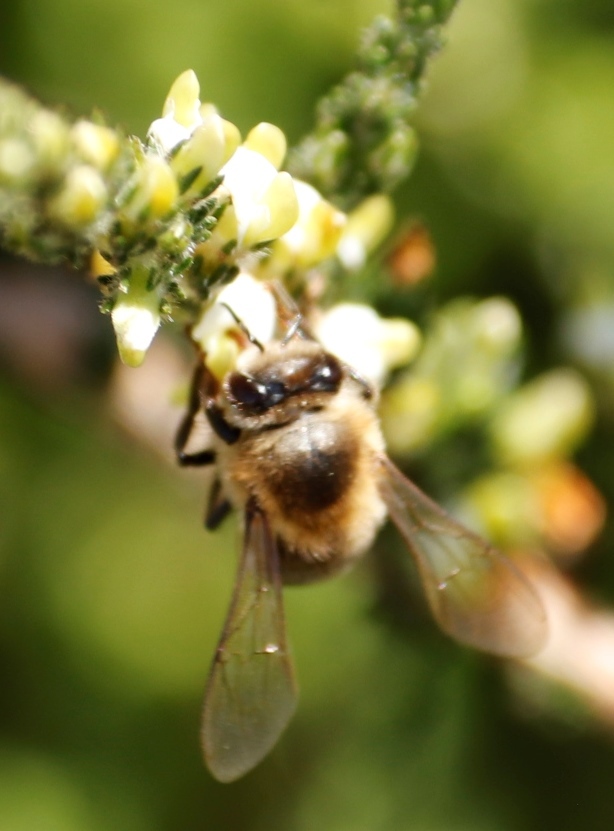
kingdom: Animalia
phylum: Arthropoda
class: Insecta
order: Hymenoptera
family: Apidae
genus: Apis
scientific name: Apis mellifera
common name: Honey bee
